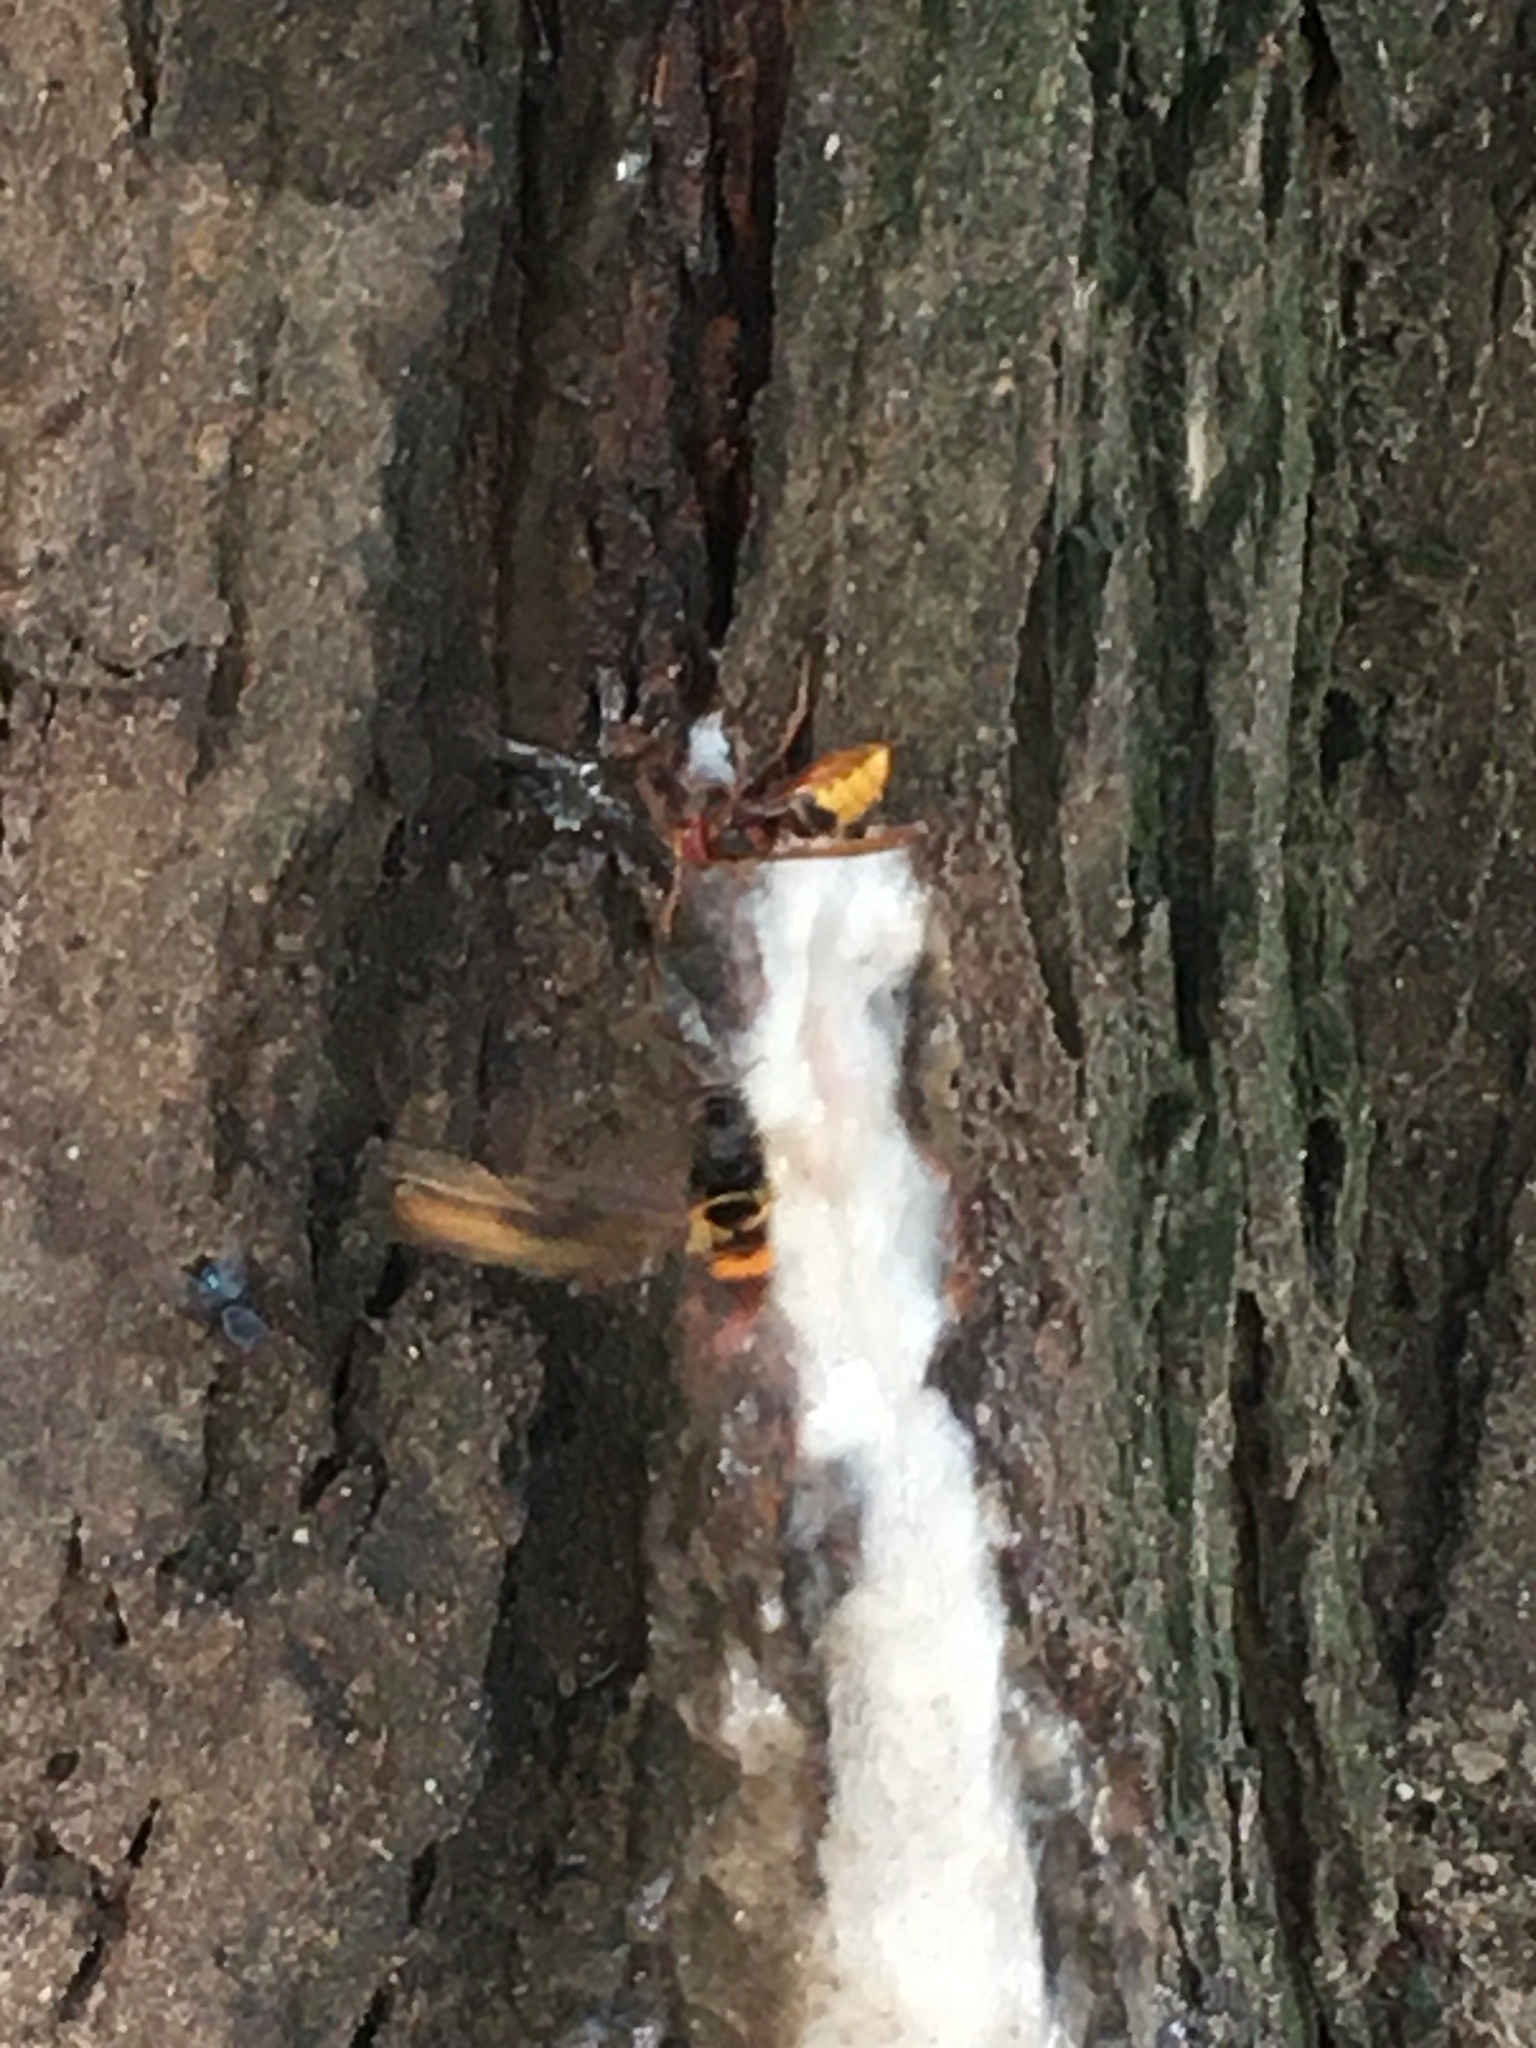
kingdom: Animalia
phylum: Arthropoda
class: Insecta
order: Hymenoptera
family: Vespidae
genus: Vespa
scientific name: Vespa velutina
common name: Asian hornet
